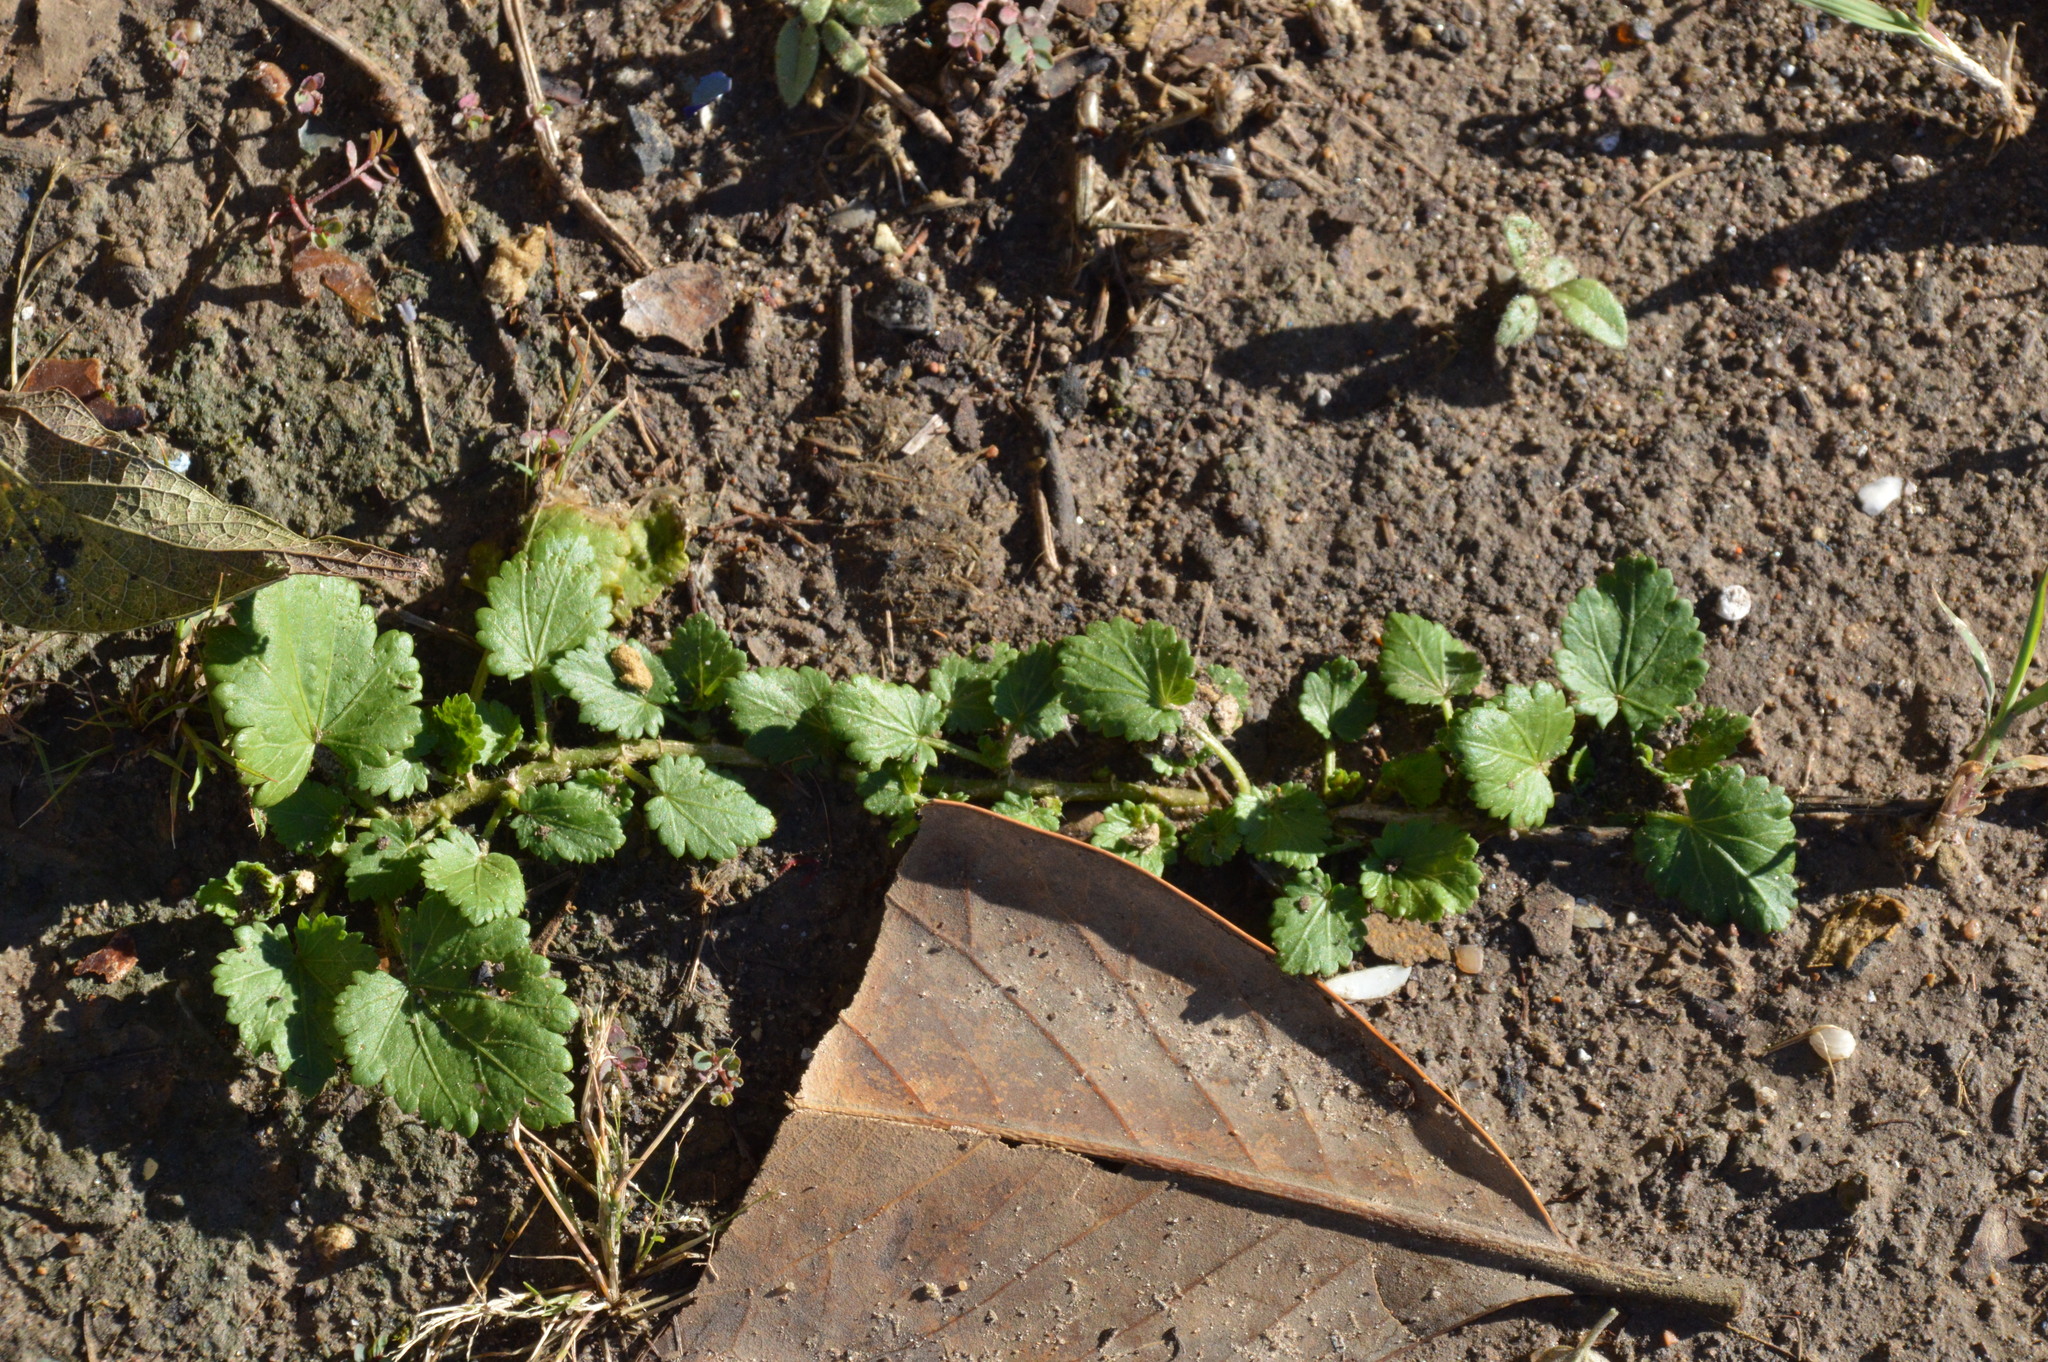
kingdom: Plantae
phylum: Tracheophyta
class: Magnoliopsida
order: Malvales
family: Malvaceae
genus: Modiola
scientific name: Modiola caroliniana
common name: Carolina bristlemallow
